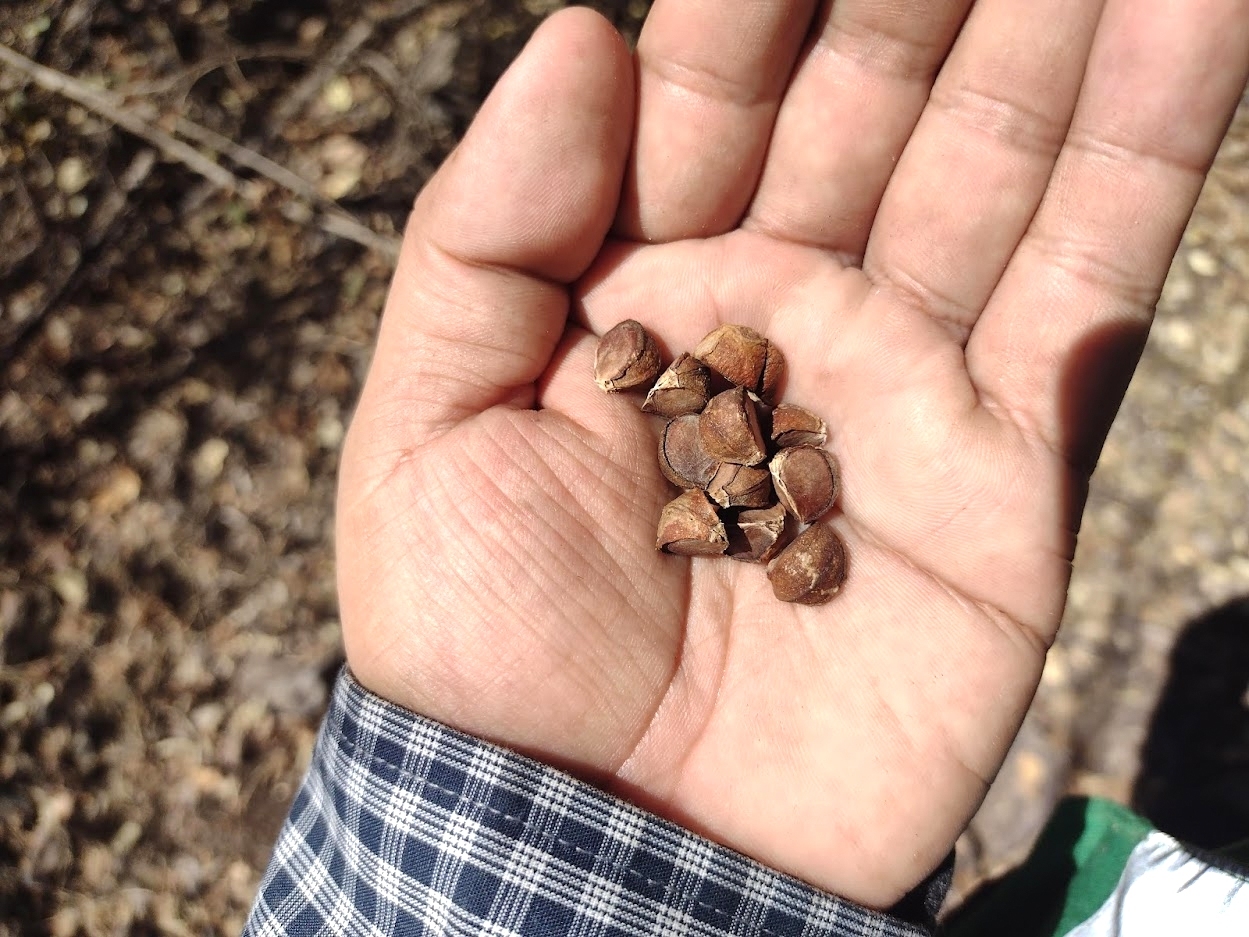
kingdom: Plantae
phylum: Tracheophyta
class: Magnoliopsida
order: Malvales
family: Malvaceae
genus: Pavonia
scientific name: Pavonia candida
